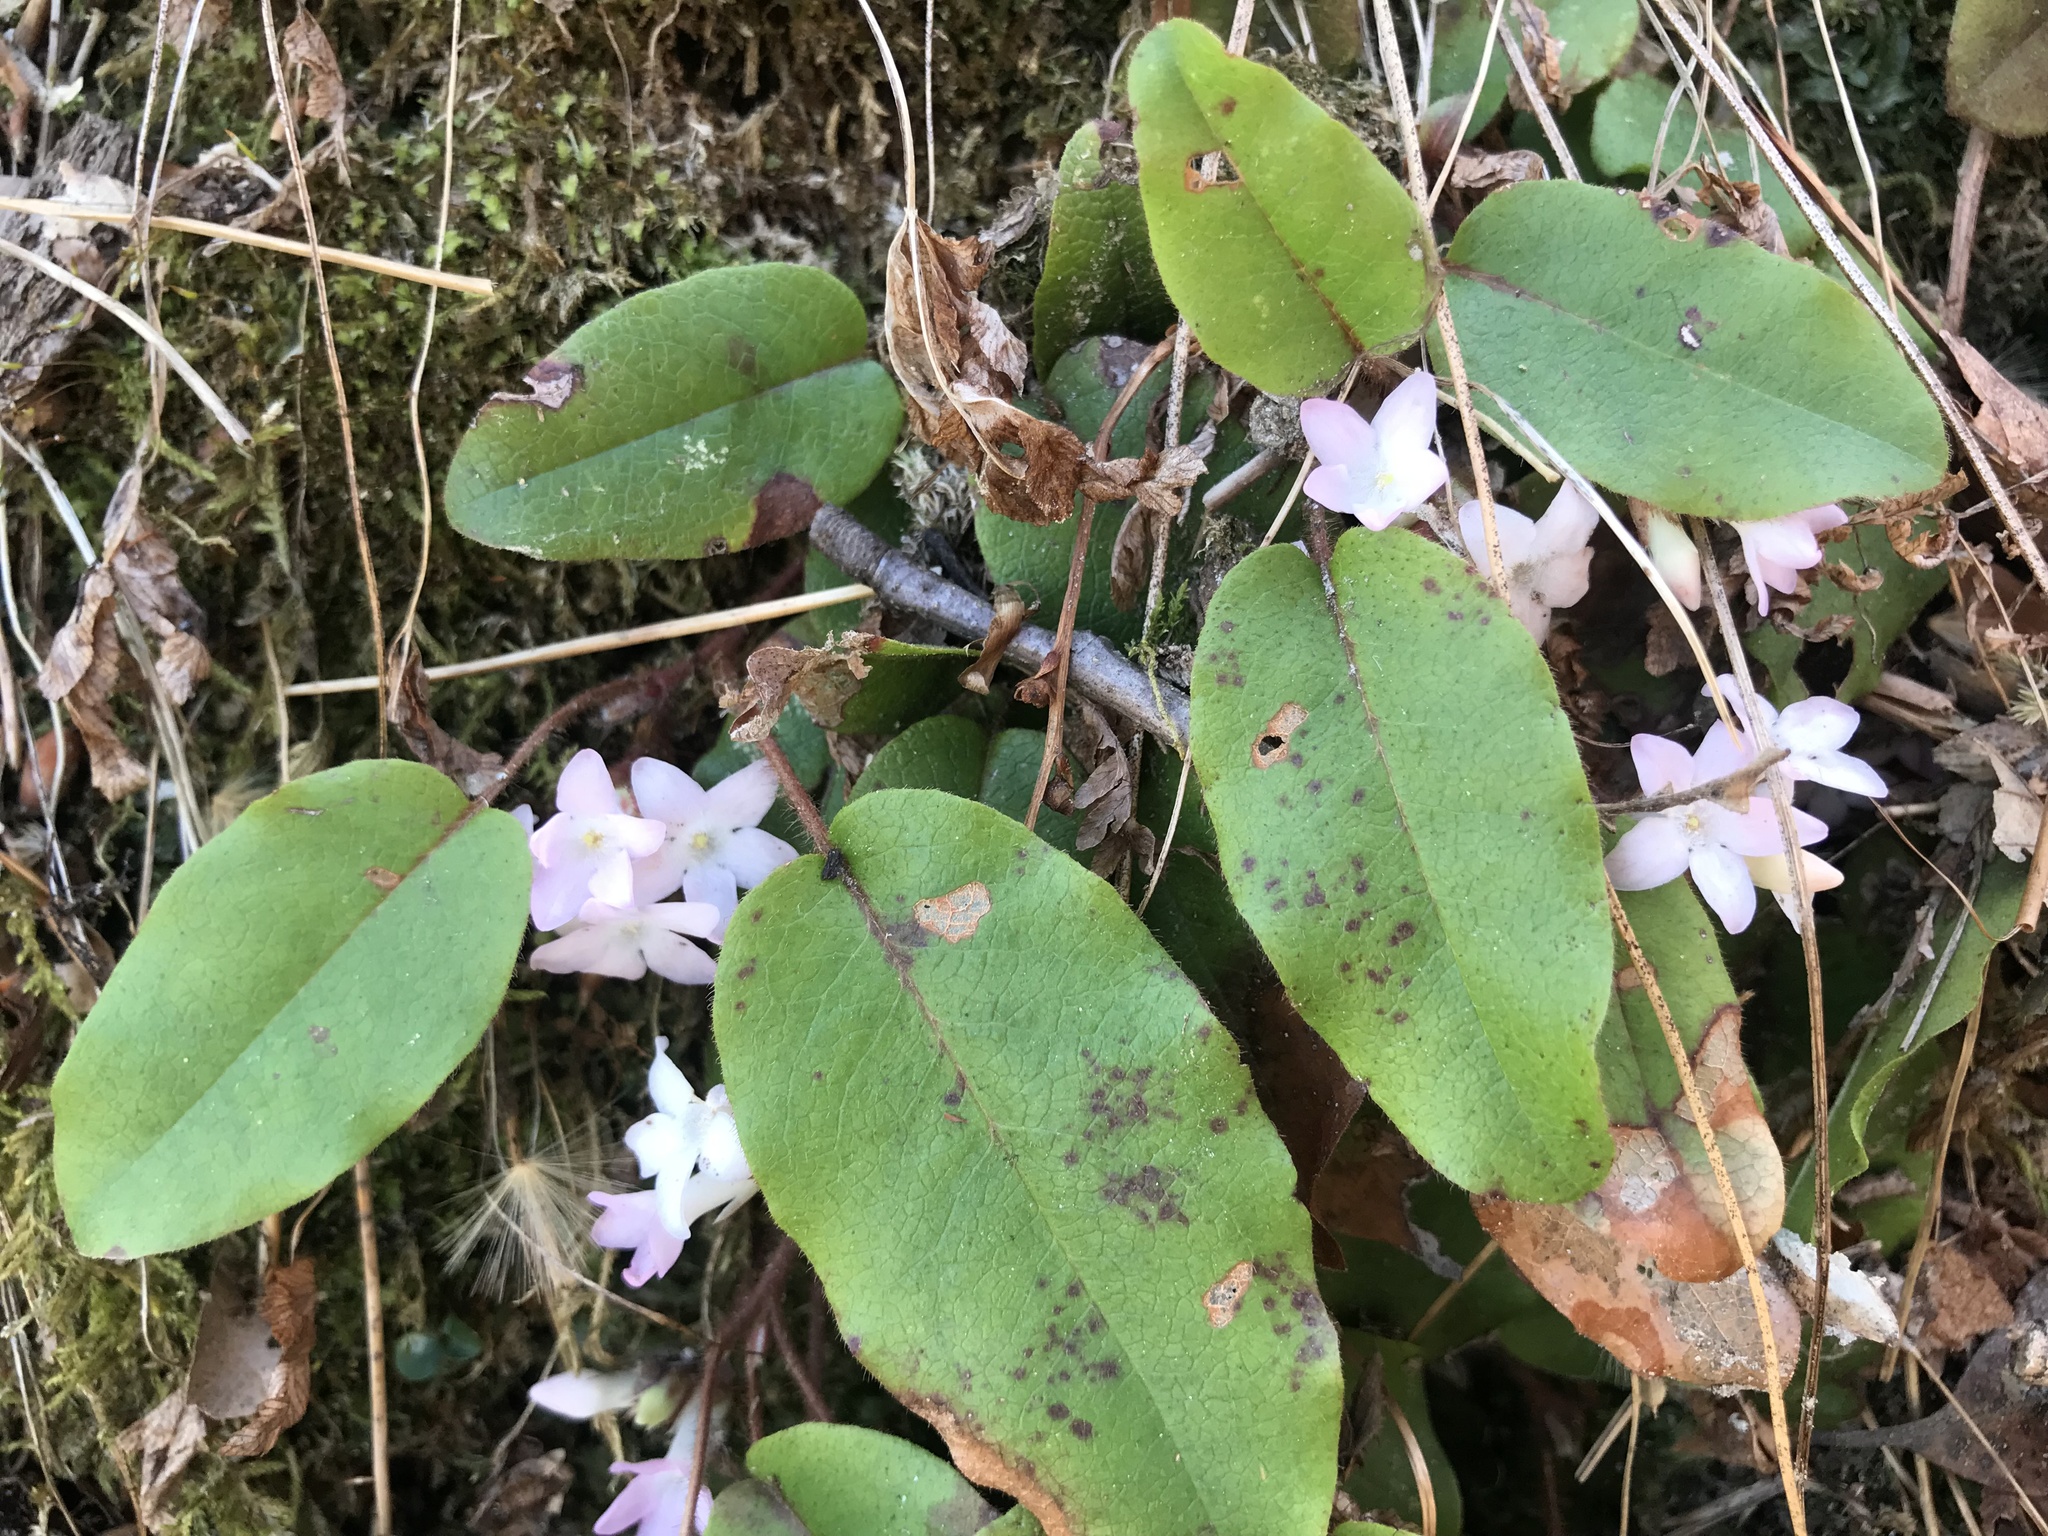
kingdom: Plantae
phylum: Tracheophyta
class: Magnoliopsida
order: Ericales
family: Ericaceae
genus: Epigaea
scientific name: Epigaea repens
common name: Gravelroot
